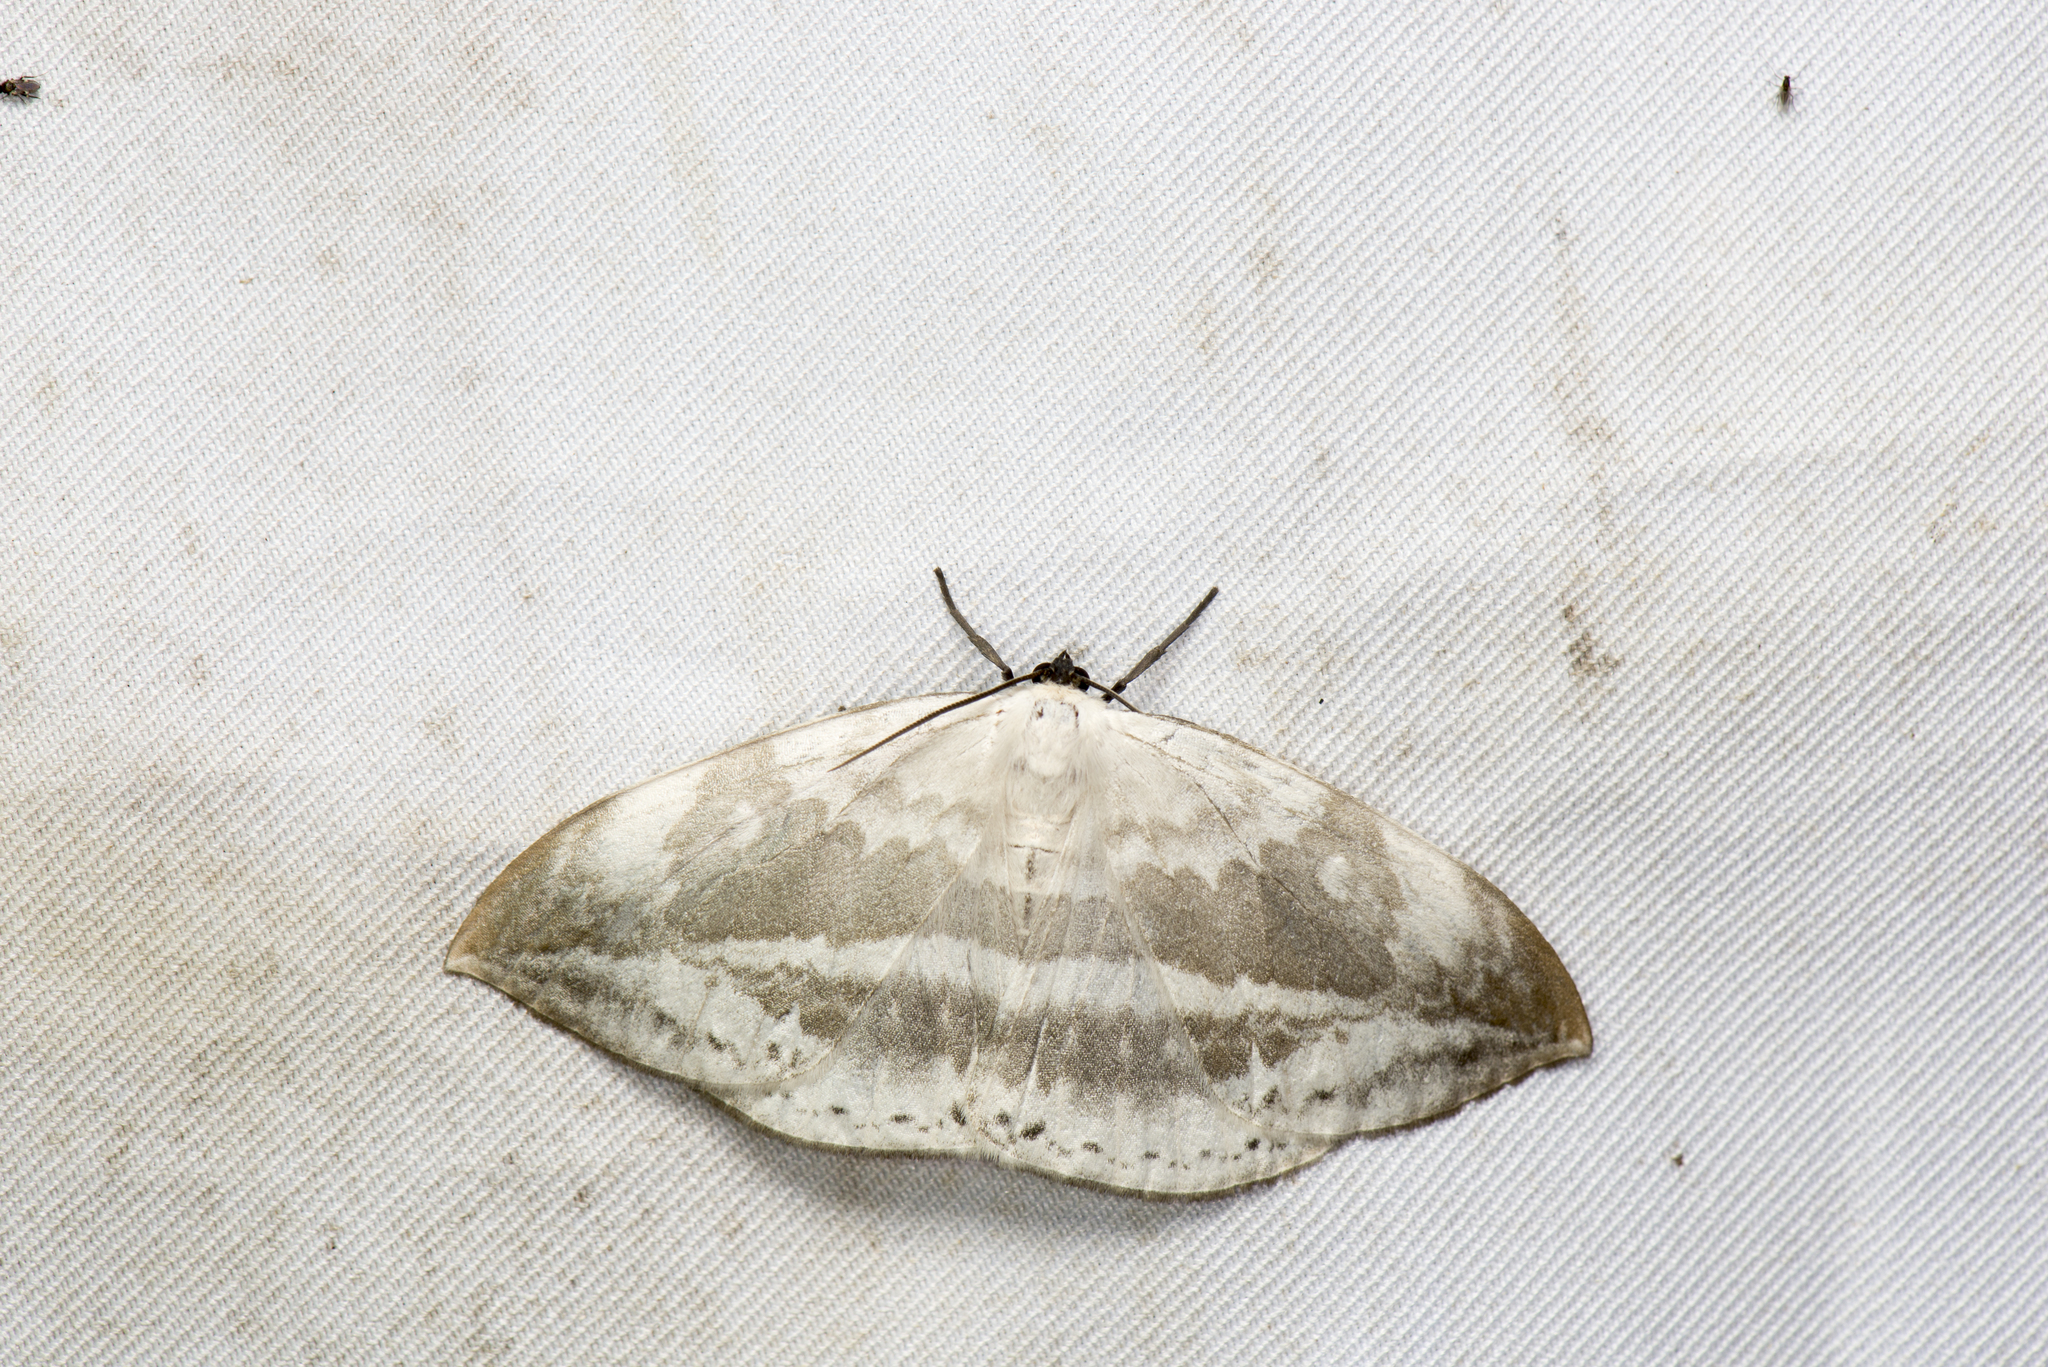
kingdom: Animalia
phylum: Arthropoda
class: Insecta
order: Lepidoptera
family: Drepanidae
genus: Cyclidia
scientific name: Cyclidia substigmaria
